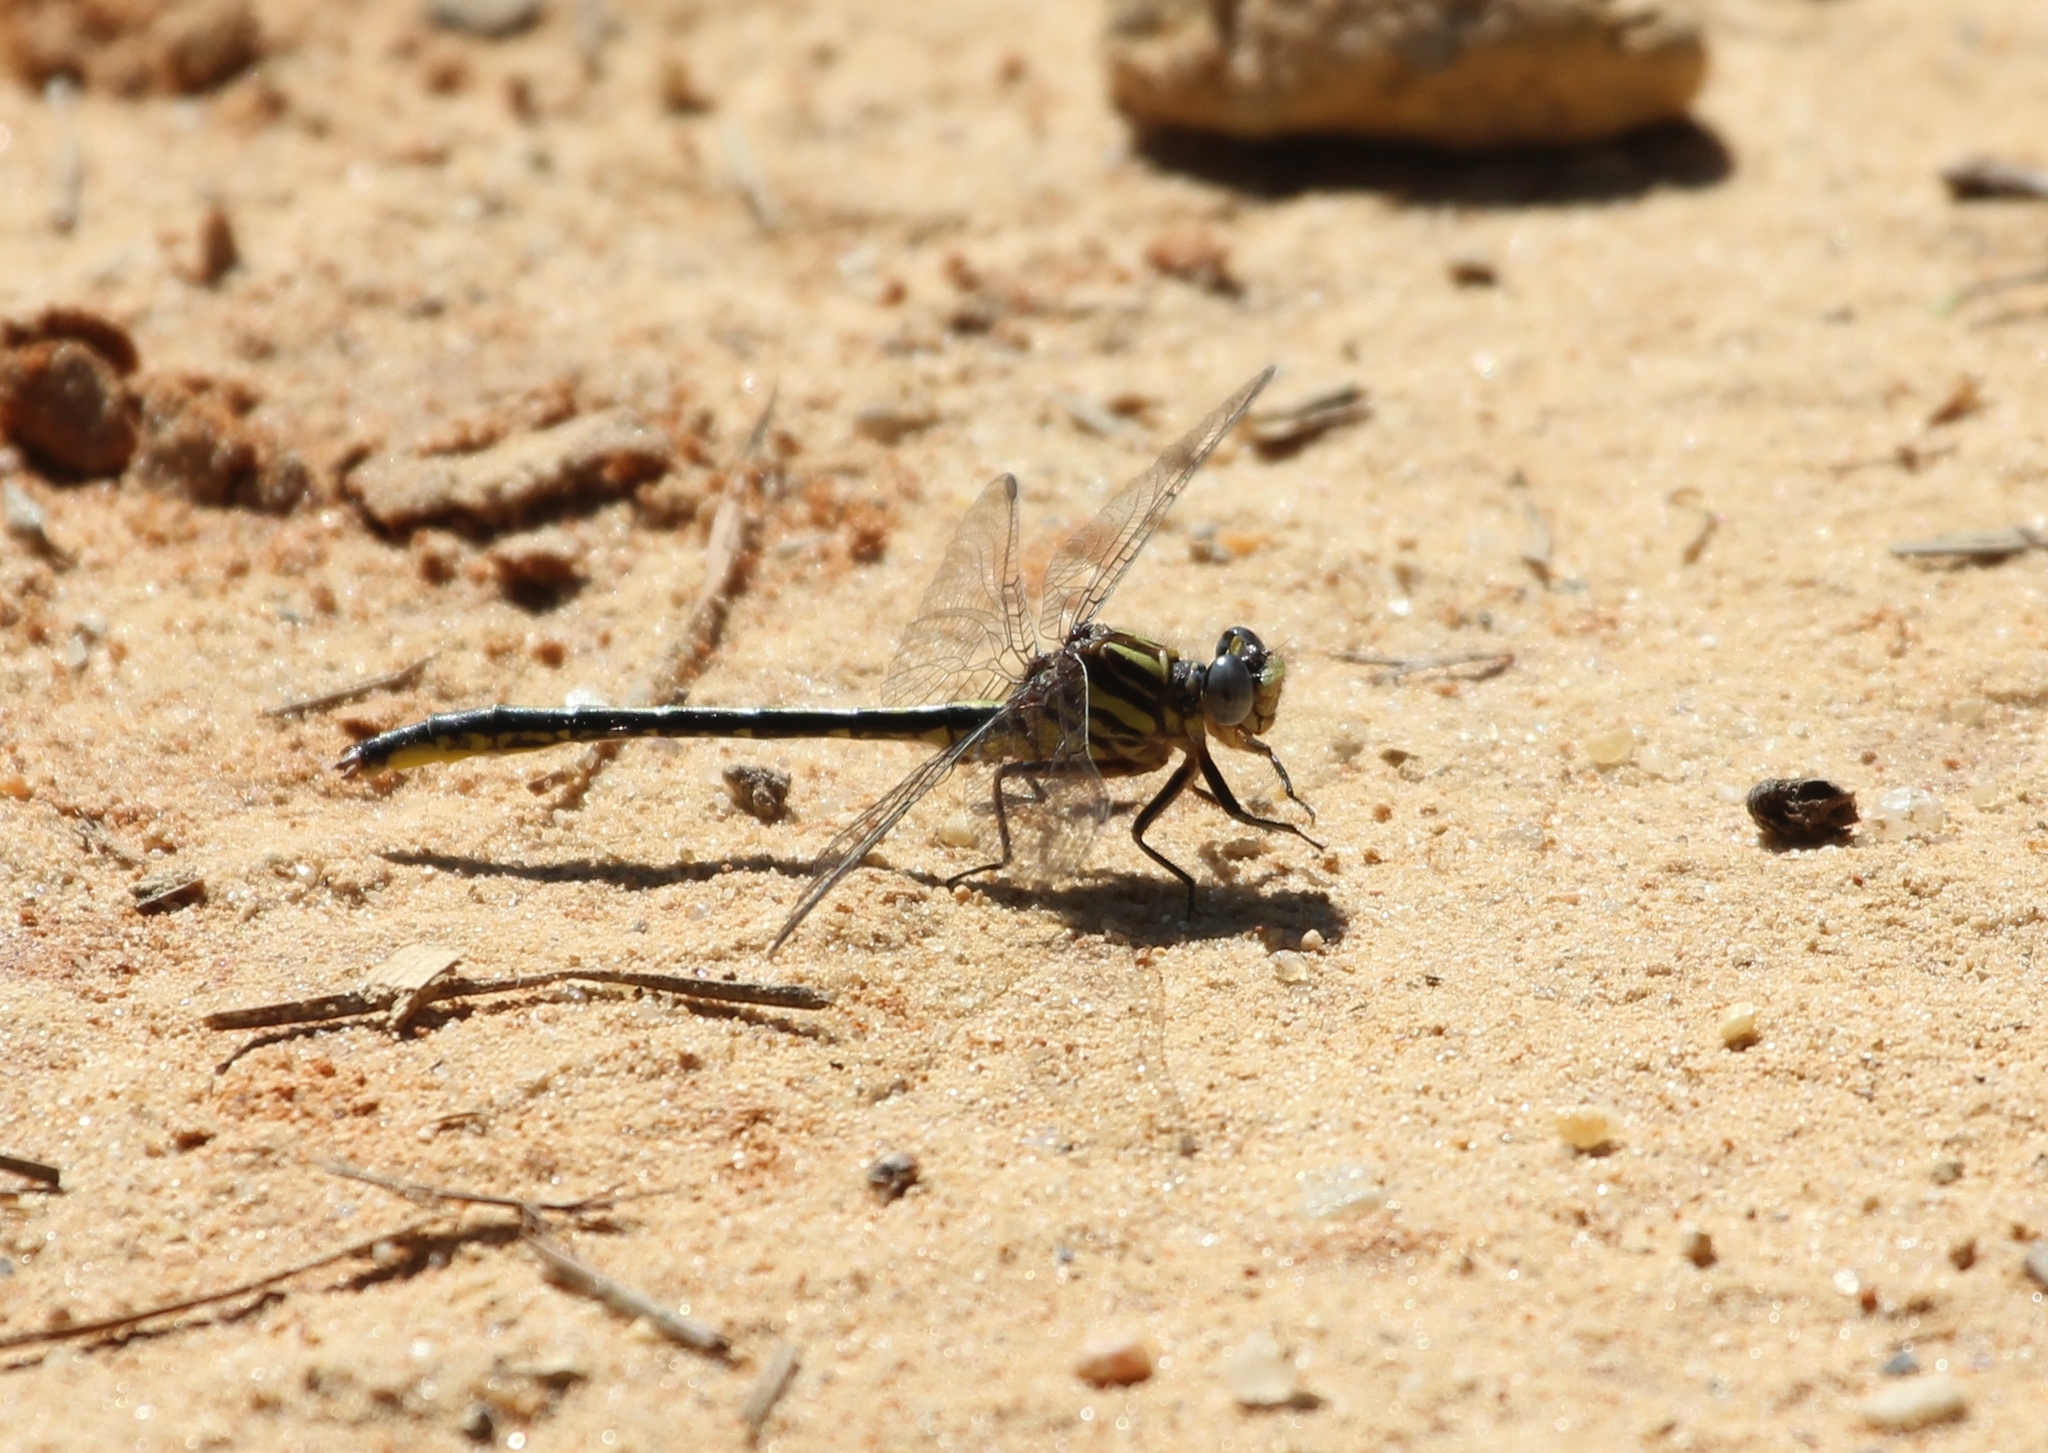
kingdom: Animalia
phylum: Arthropoda
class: Insecta
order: Odonata
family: Gomphidae
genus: Phanogomphus
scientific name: Phanogomphus hodgesi
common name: Hodges' clubtail
